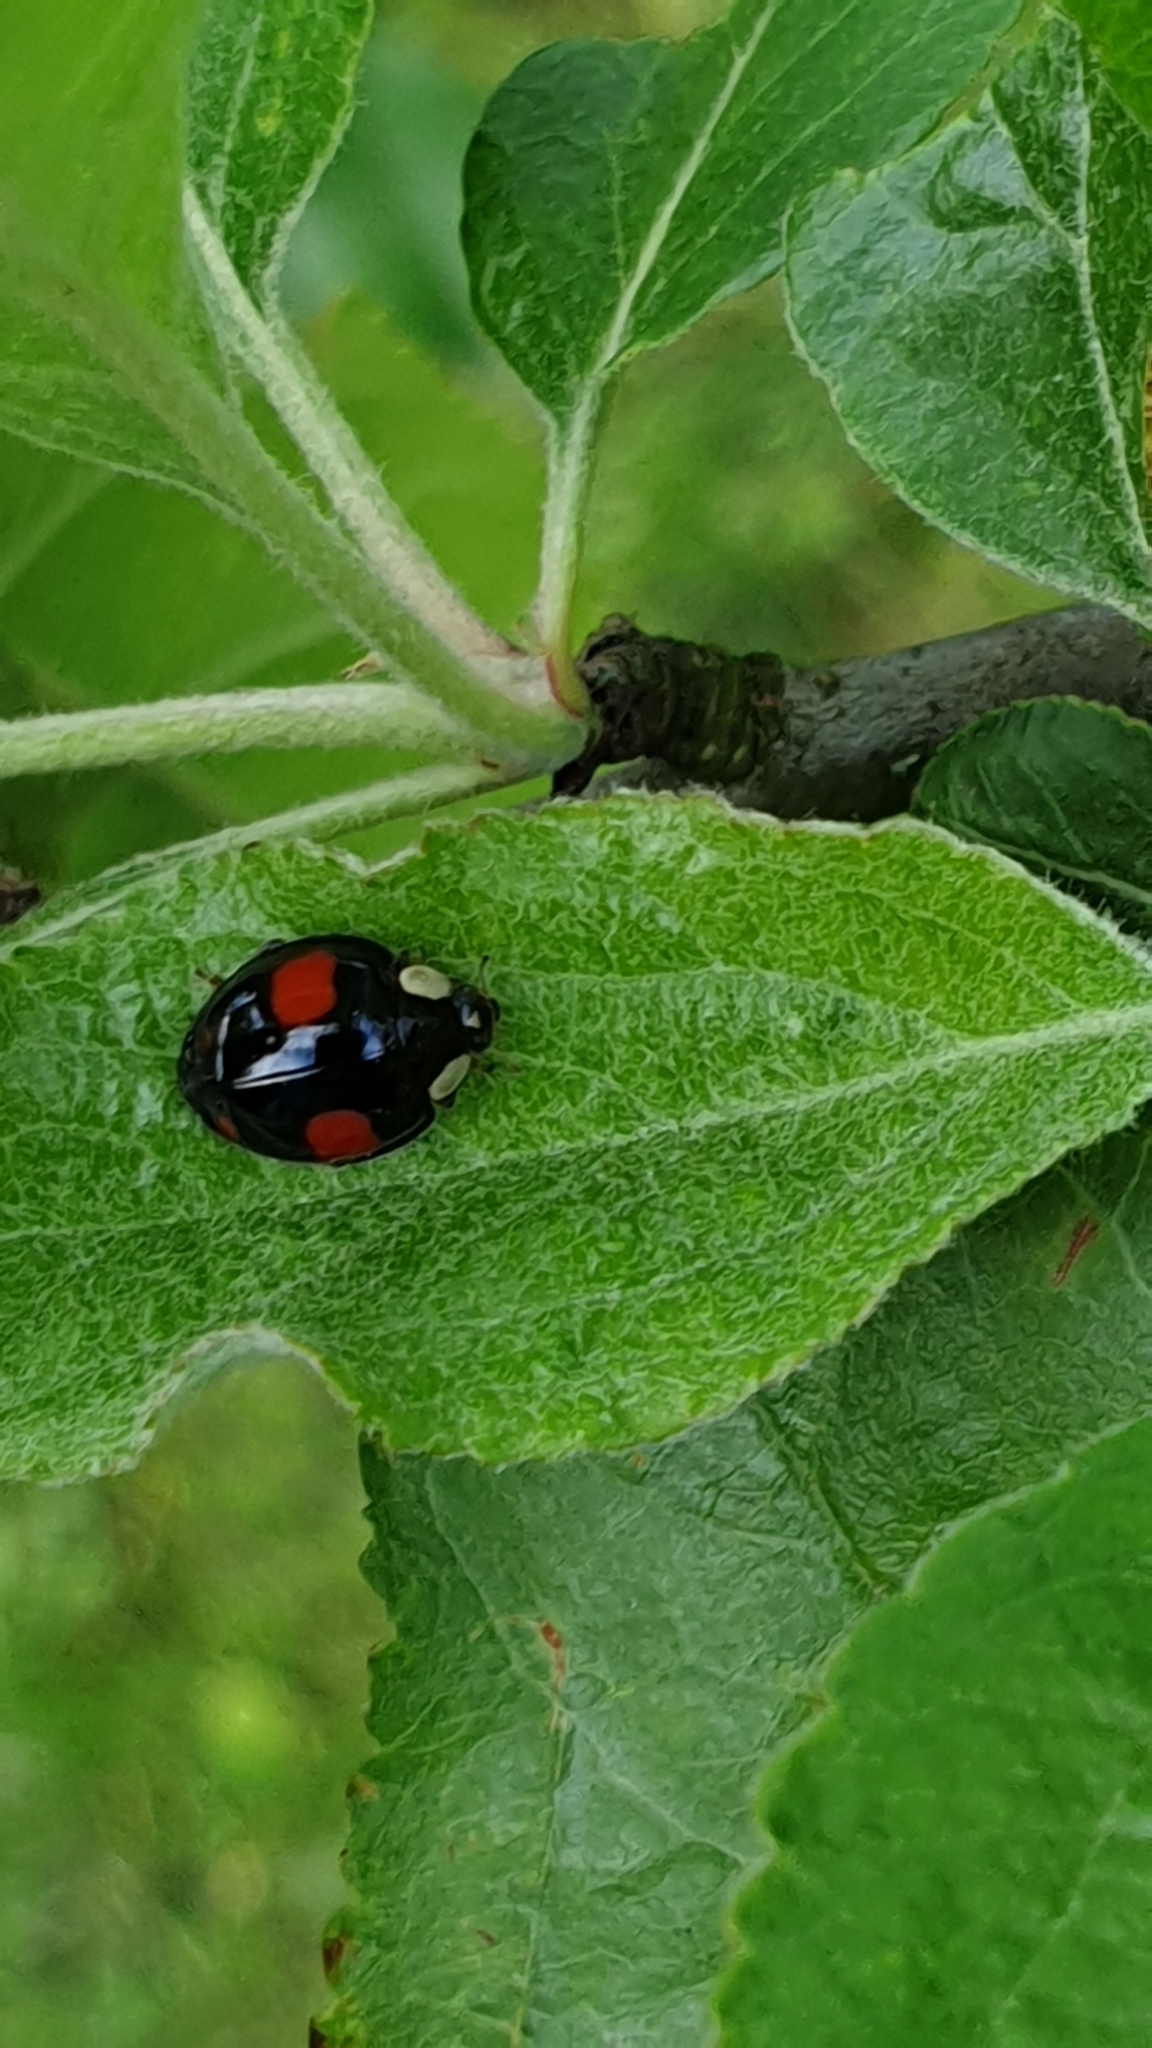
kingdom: Animalia
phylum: Arthropoda
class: Insecta
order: Coleoptera
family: Coccinellidae
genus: Harmonia
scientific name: Harmonia axyridis
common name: Harlequin ladybird
